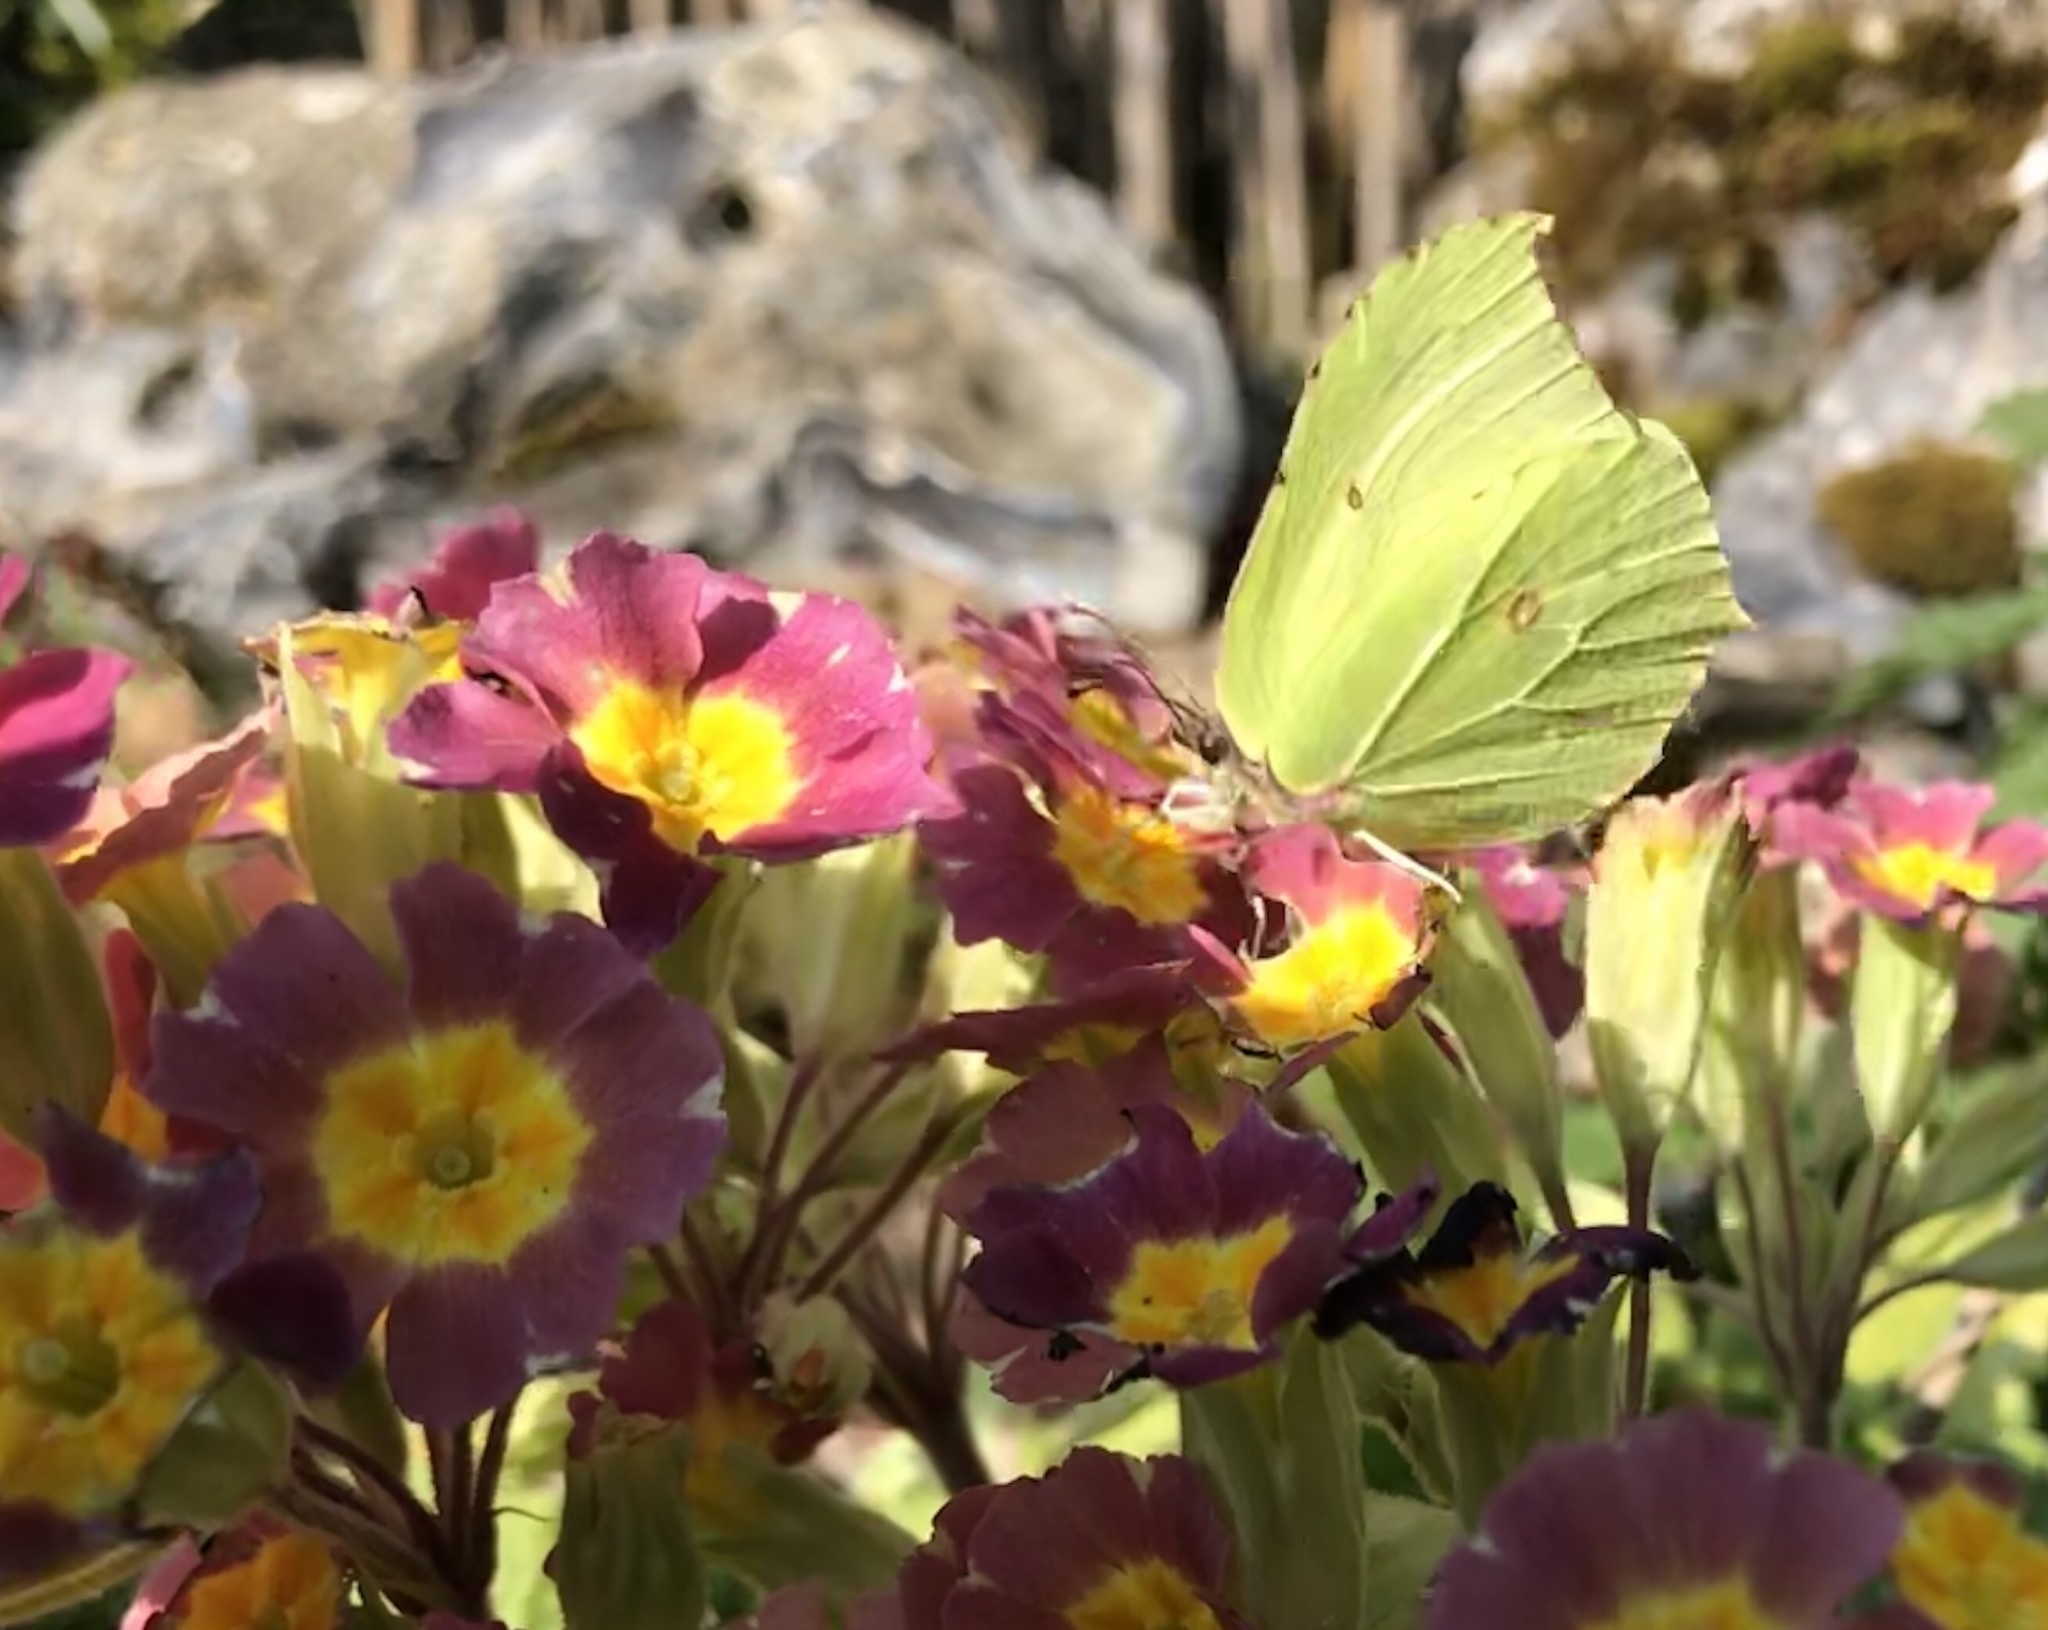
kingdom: Animalia
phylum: Arthropoda
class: Insecta
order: Lepidoptera
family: Pieridae
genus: Gonepteryx
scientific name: Gonepteryx rhamni
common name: Brimstone
